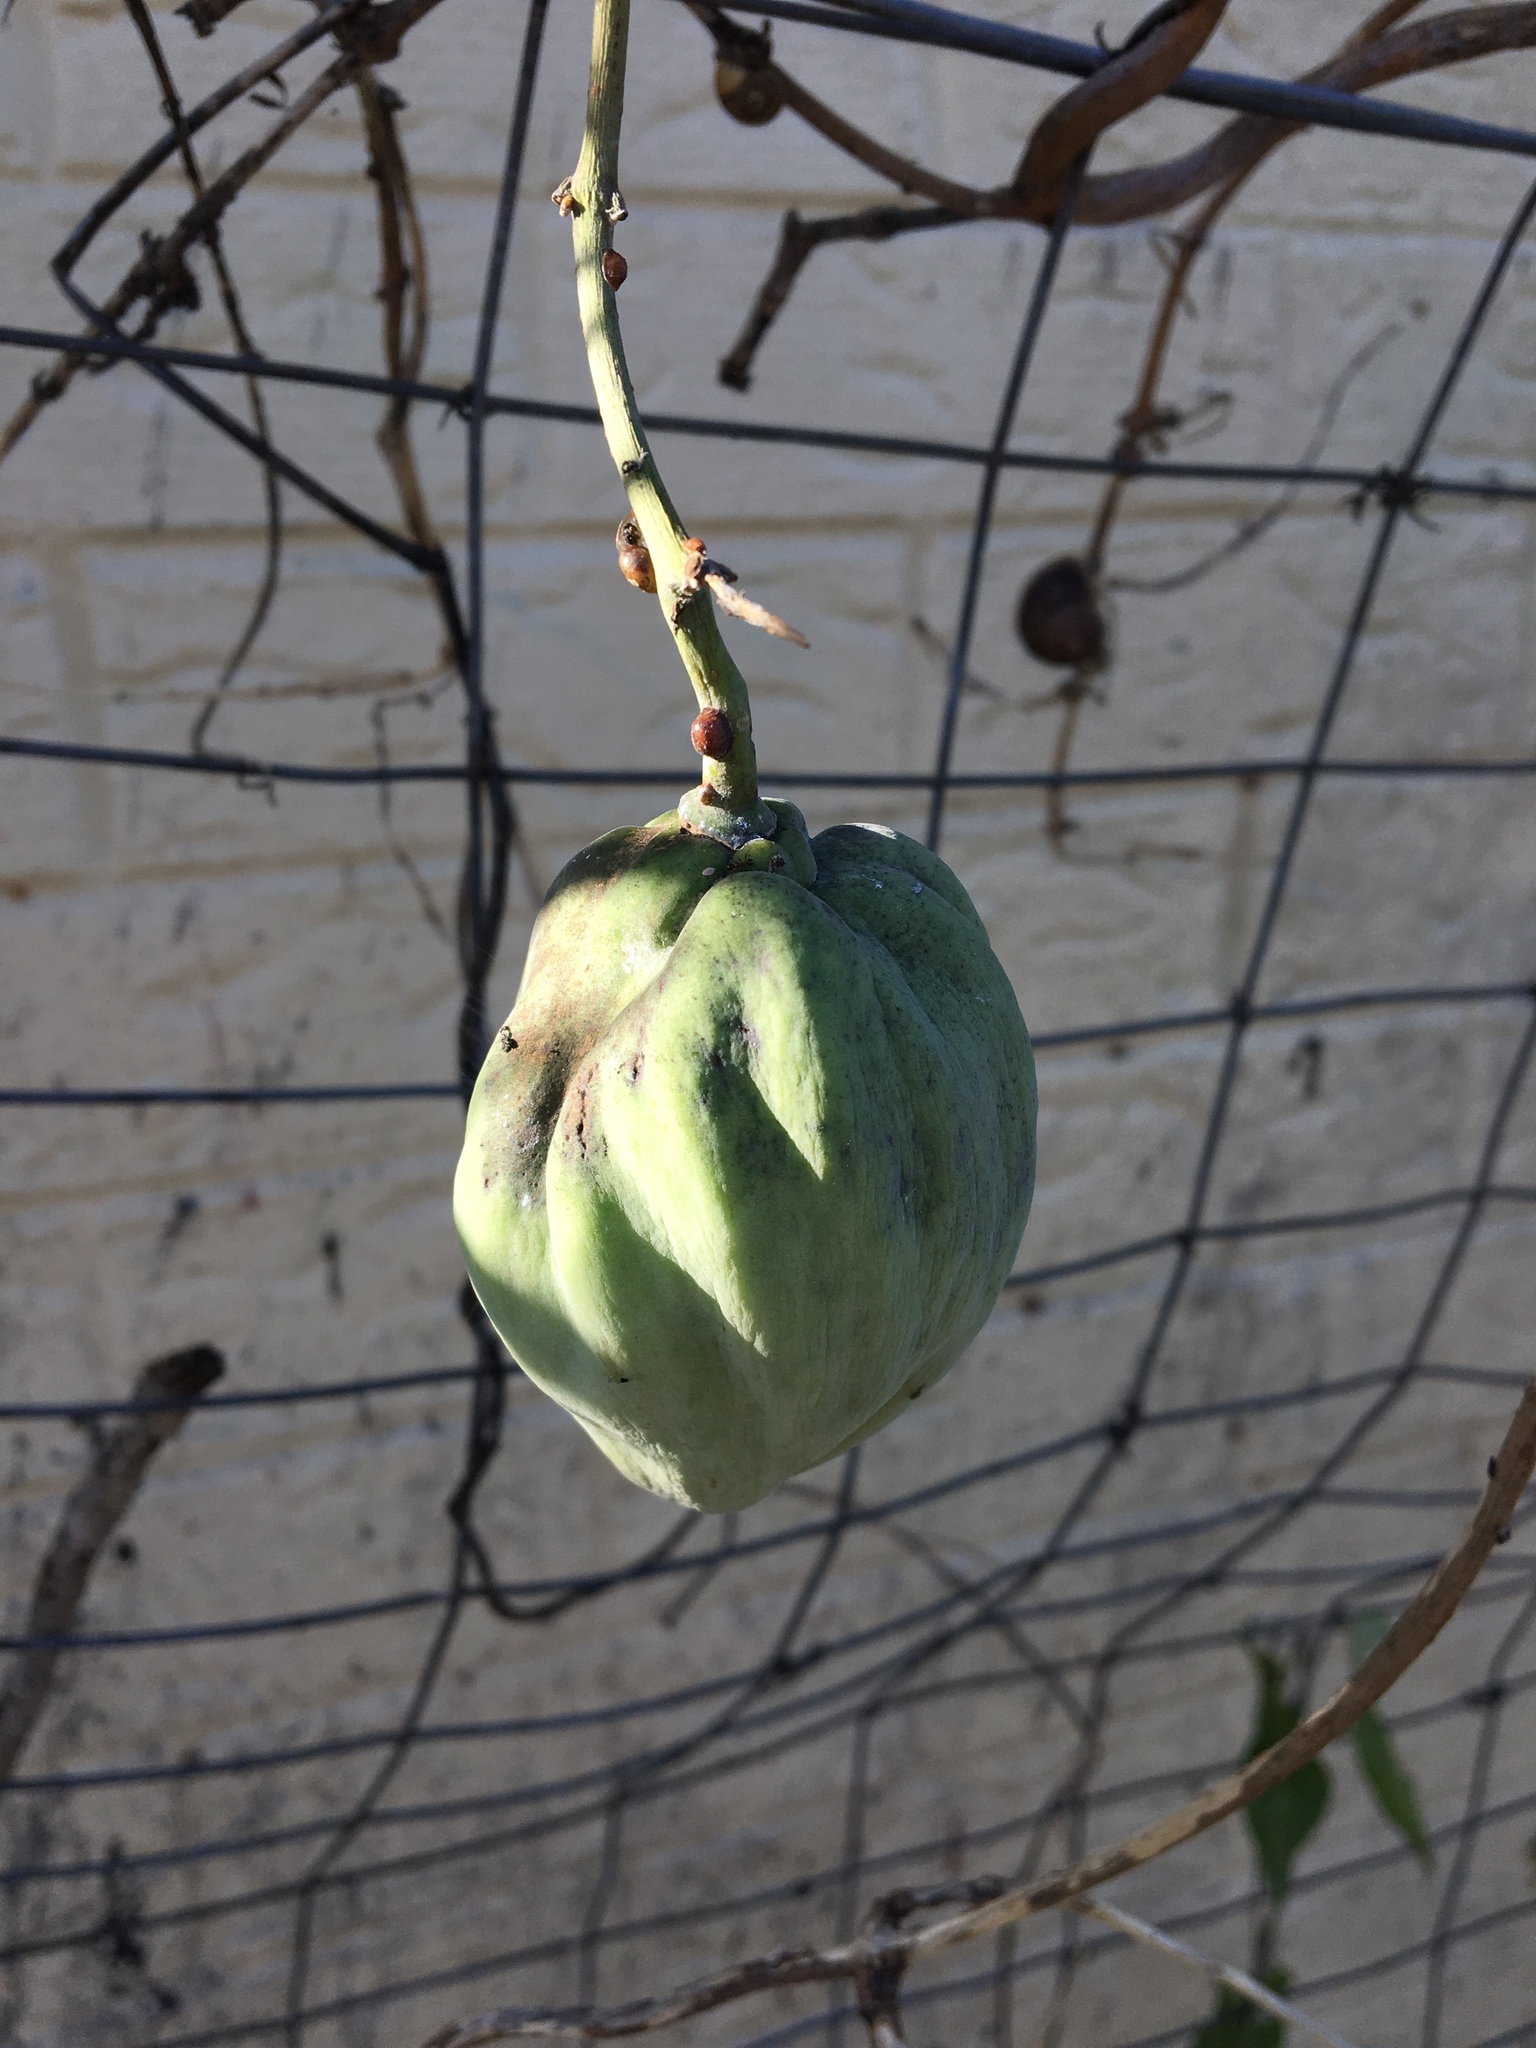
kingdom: Plantae
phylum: Tracheophyta
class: Magnoliopsida
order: Gentianales
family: Apocynaceae
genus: Araujia
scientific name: Araujia sericifera
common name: White bladderflower
